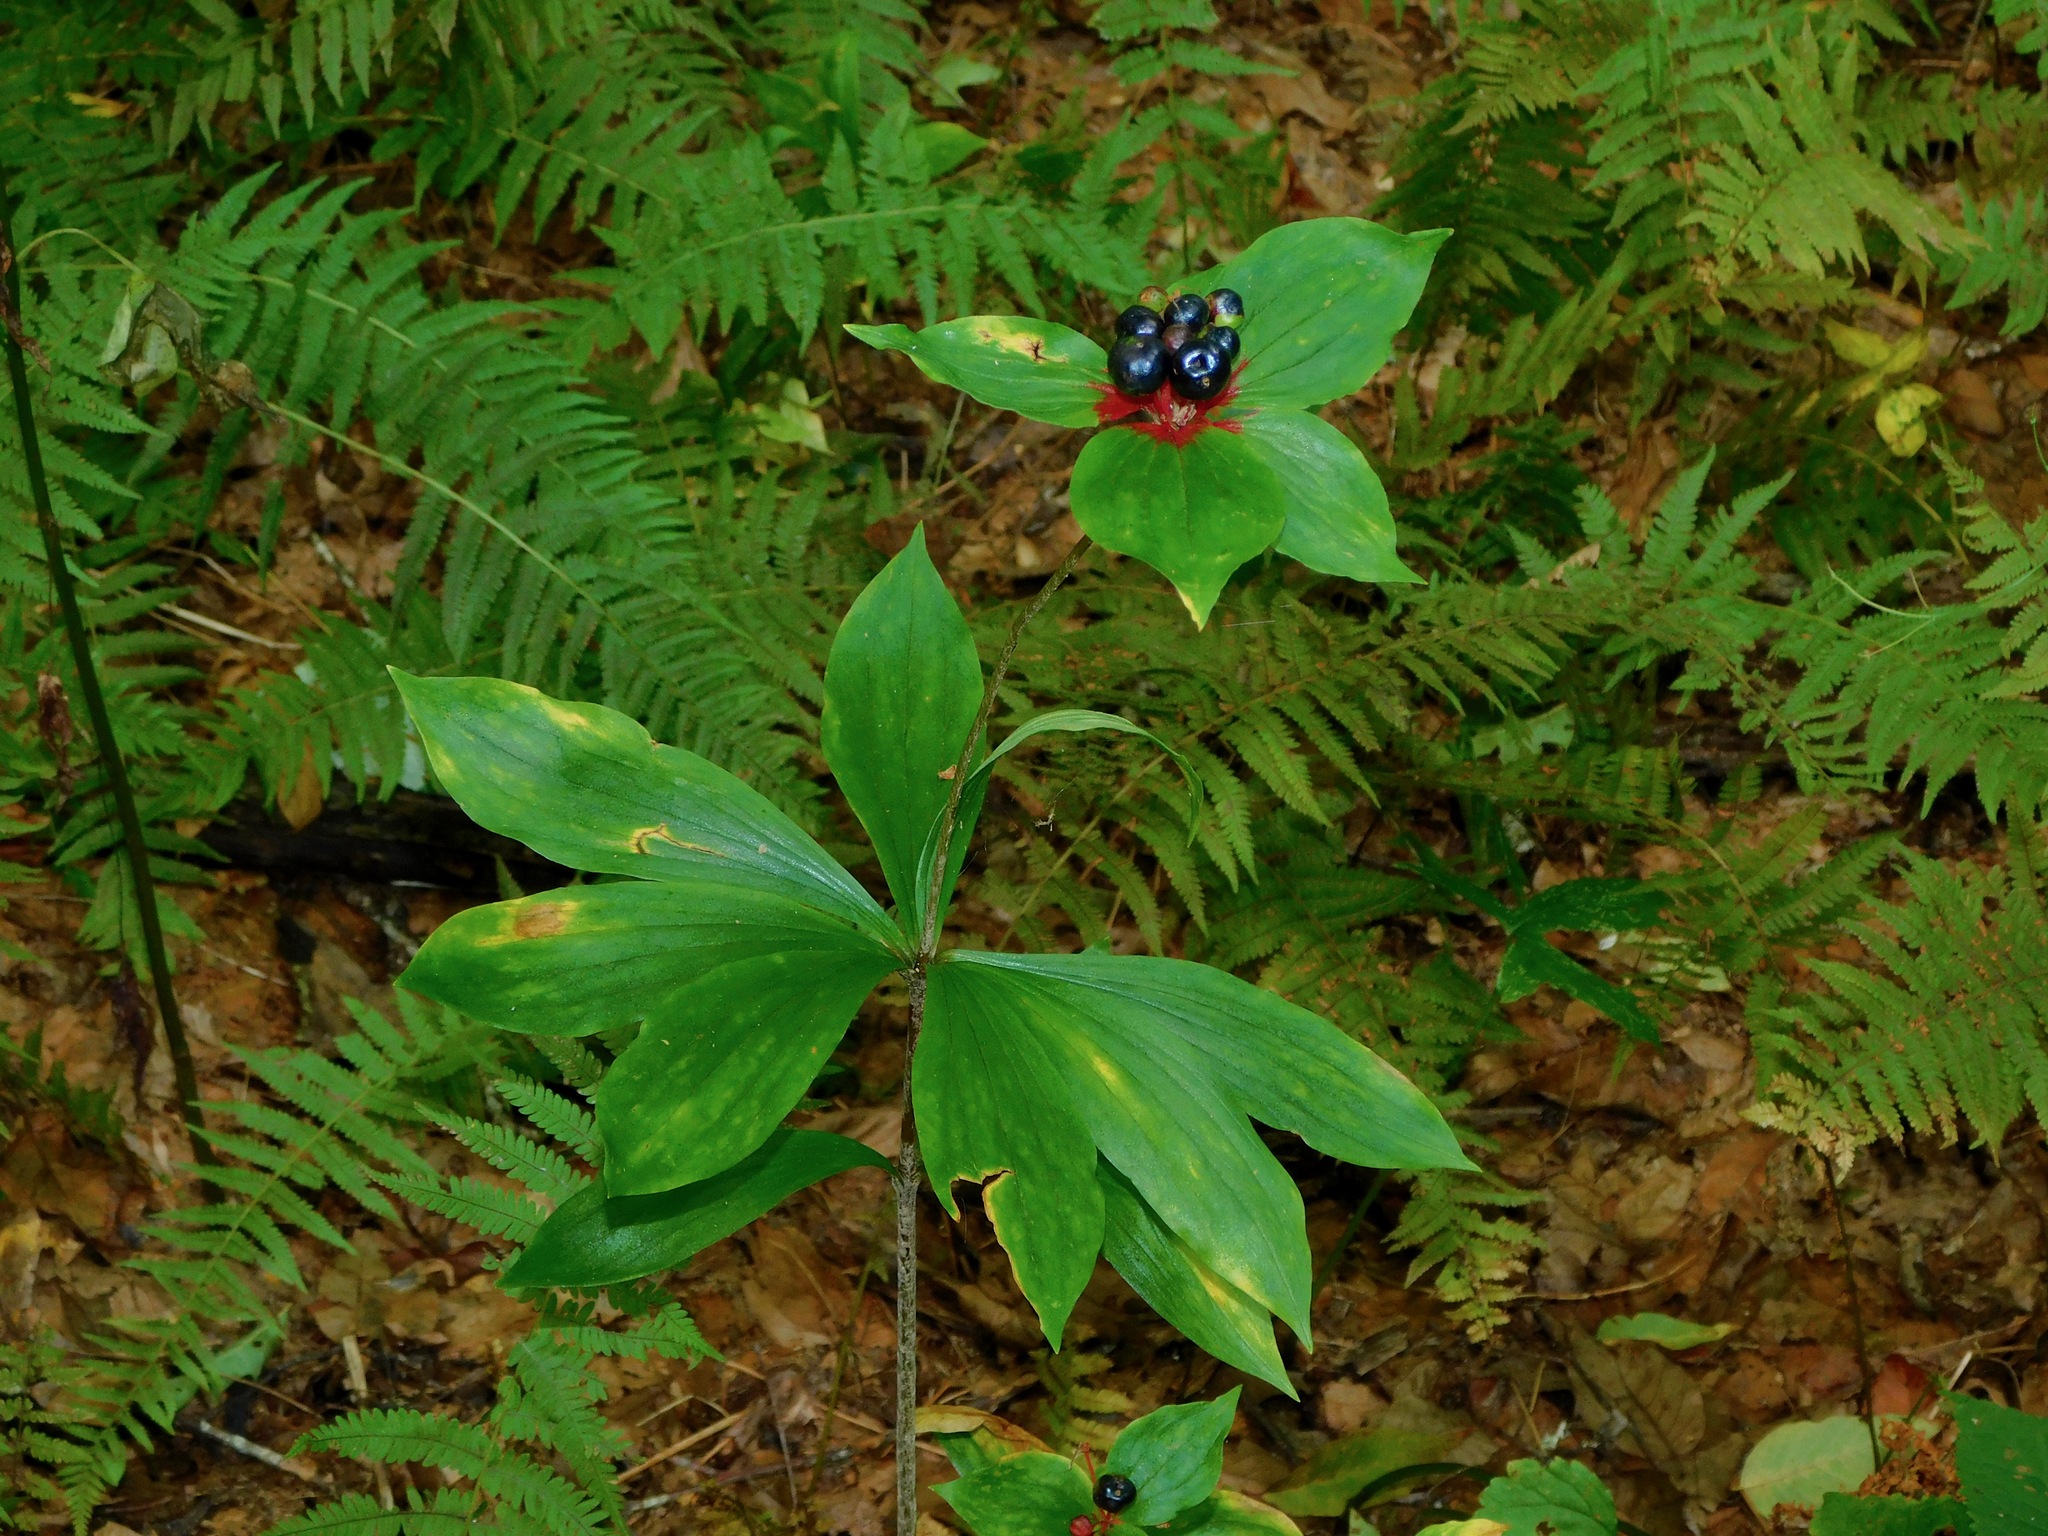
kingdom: Plantae
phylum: Tracheophyta
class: Liliopsida
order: Liliales
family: Liliaceae
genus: Medeola
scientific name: Medeola virginiana
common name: Indian cucumber-root
